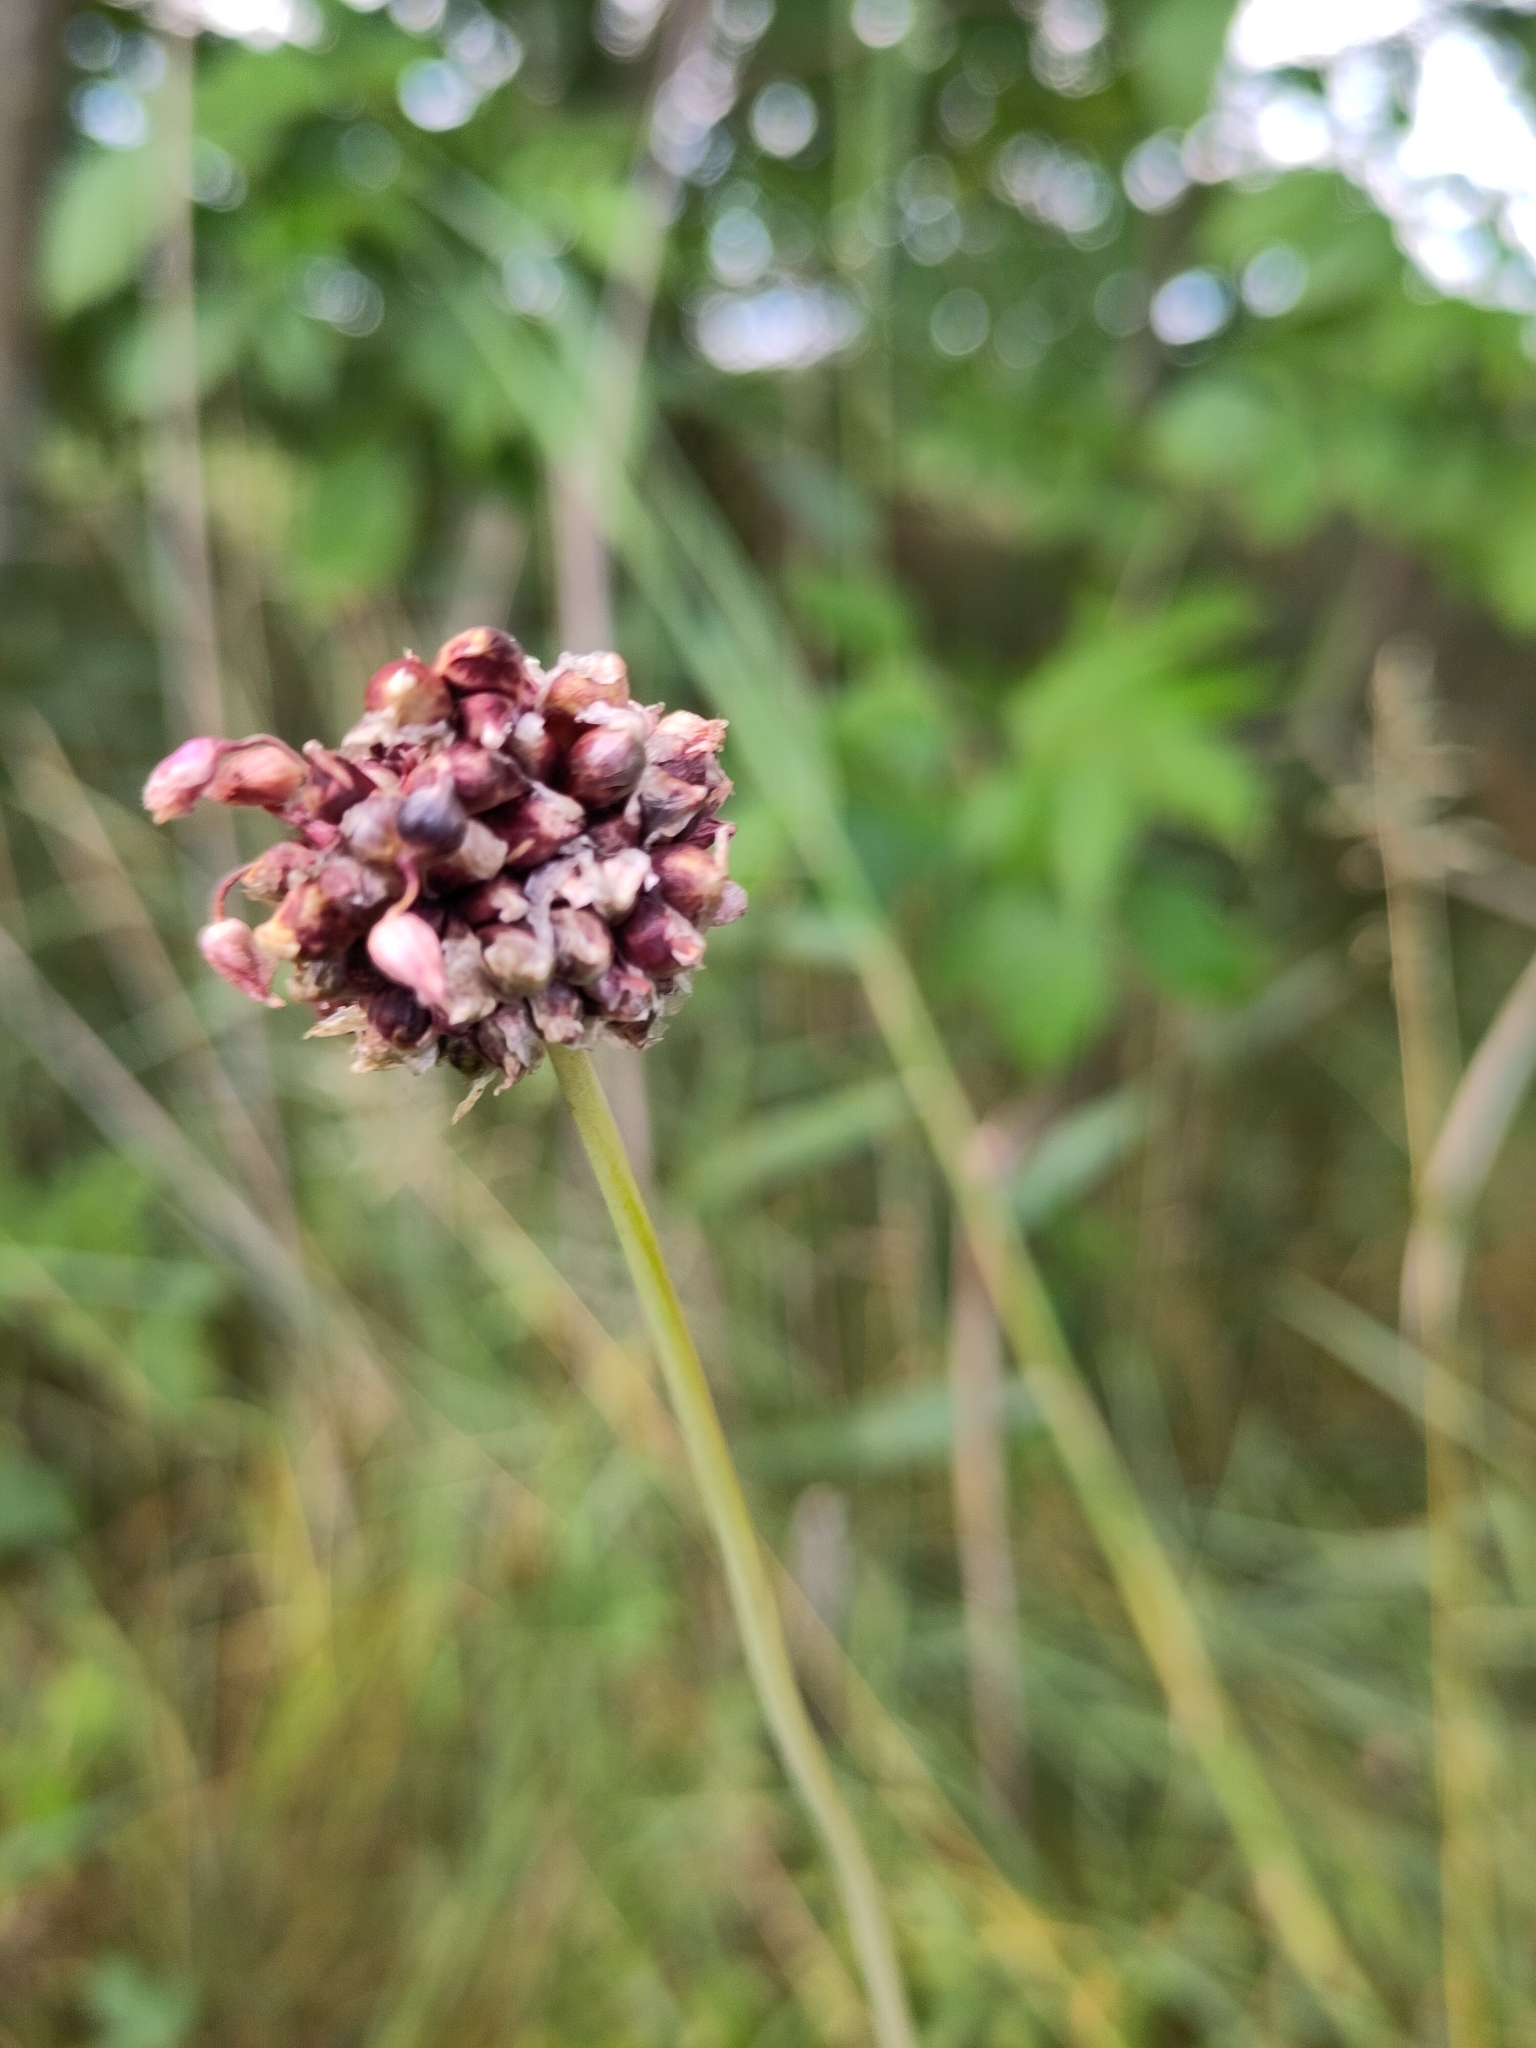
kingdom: Plantae
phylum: Tracheophyta
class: Liliopsida
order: Asparagales
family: Amaryllidaceae
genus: Allium
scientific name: Allium scorodoprasum
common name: Sand leek
